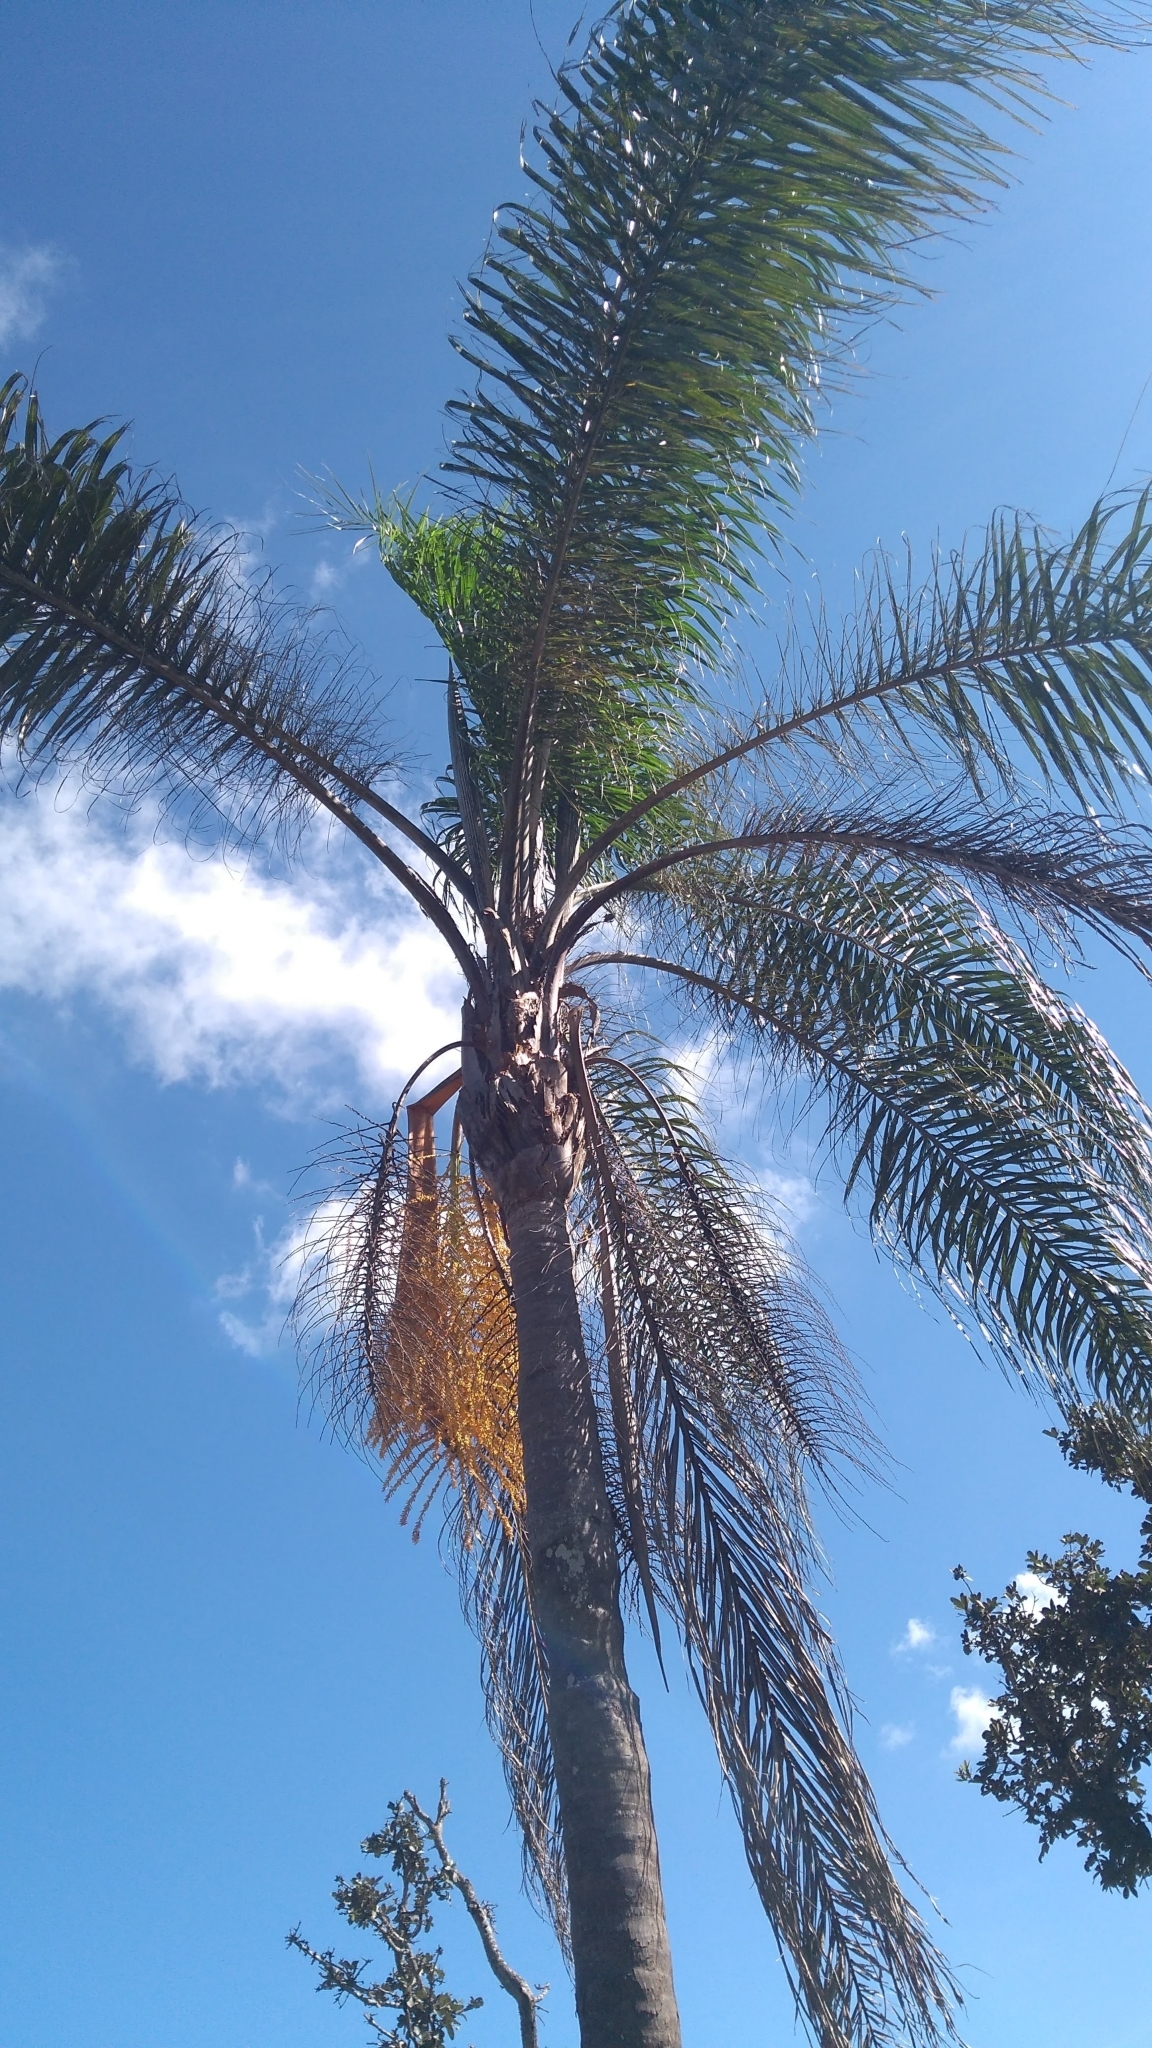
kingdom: Plantae
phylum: Tracheophyta
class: Liliopsida
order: Arecales
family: Arecaceae
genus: Syagrus
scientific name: Syagrus romanzoffiana
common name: Queen palm
